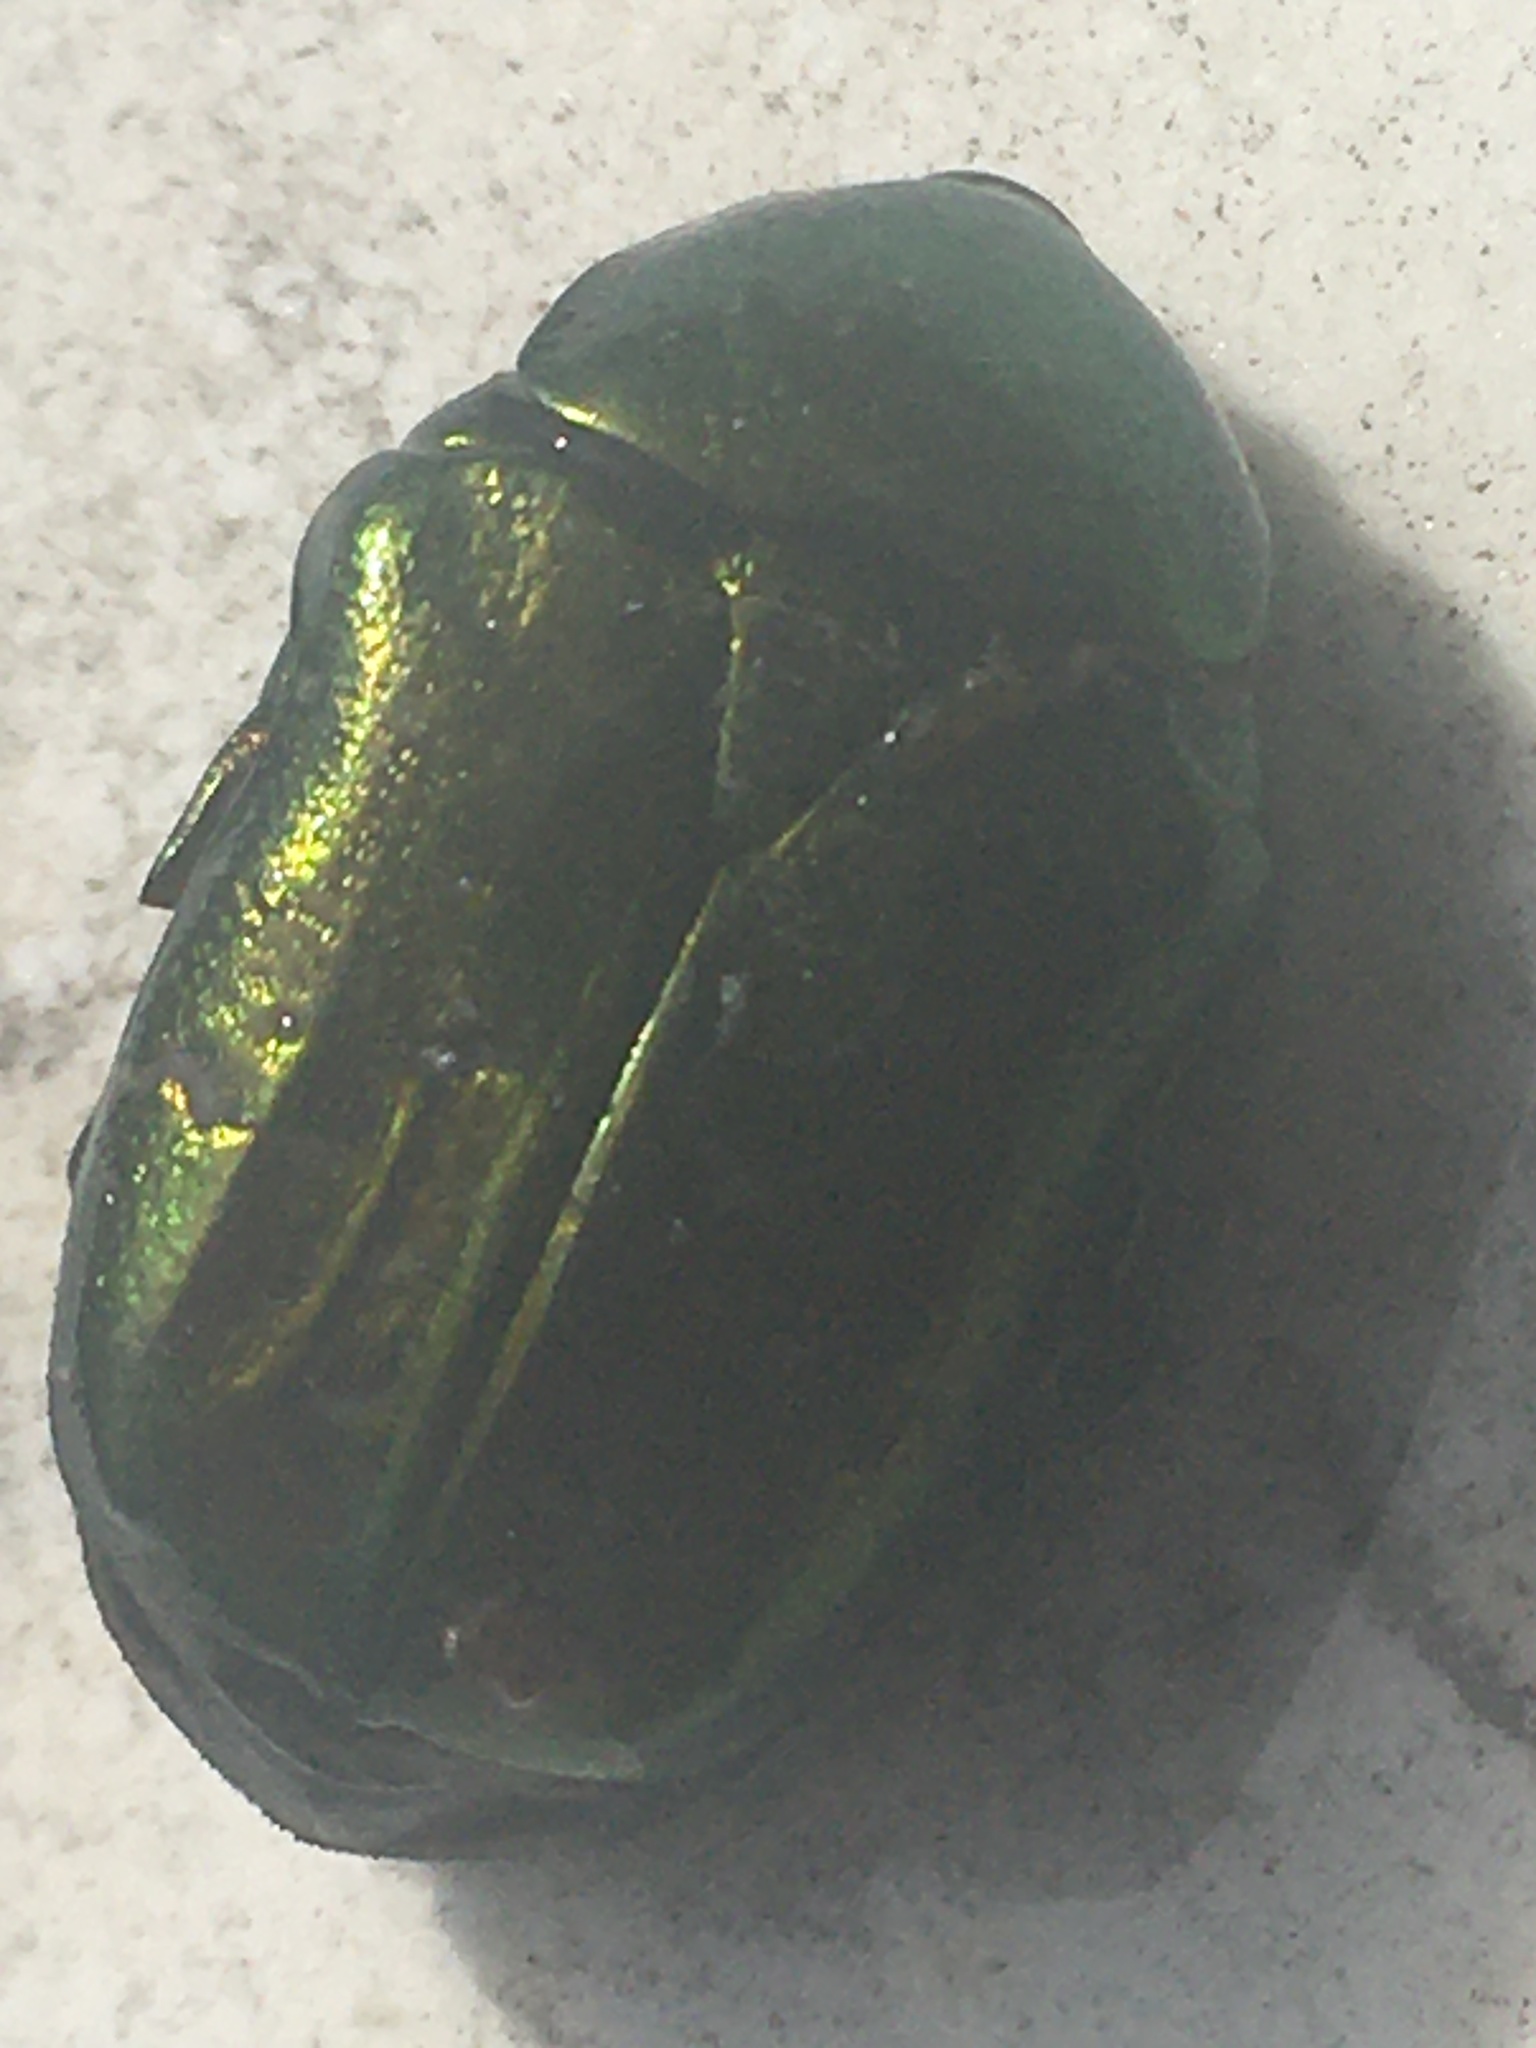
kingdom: Animalia
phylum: Arthropoda
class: Insecta
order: Coleoptera
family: Scarabaeidae
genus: Cetonia
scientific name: Cetonia aurata
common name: Rose chafer
